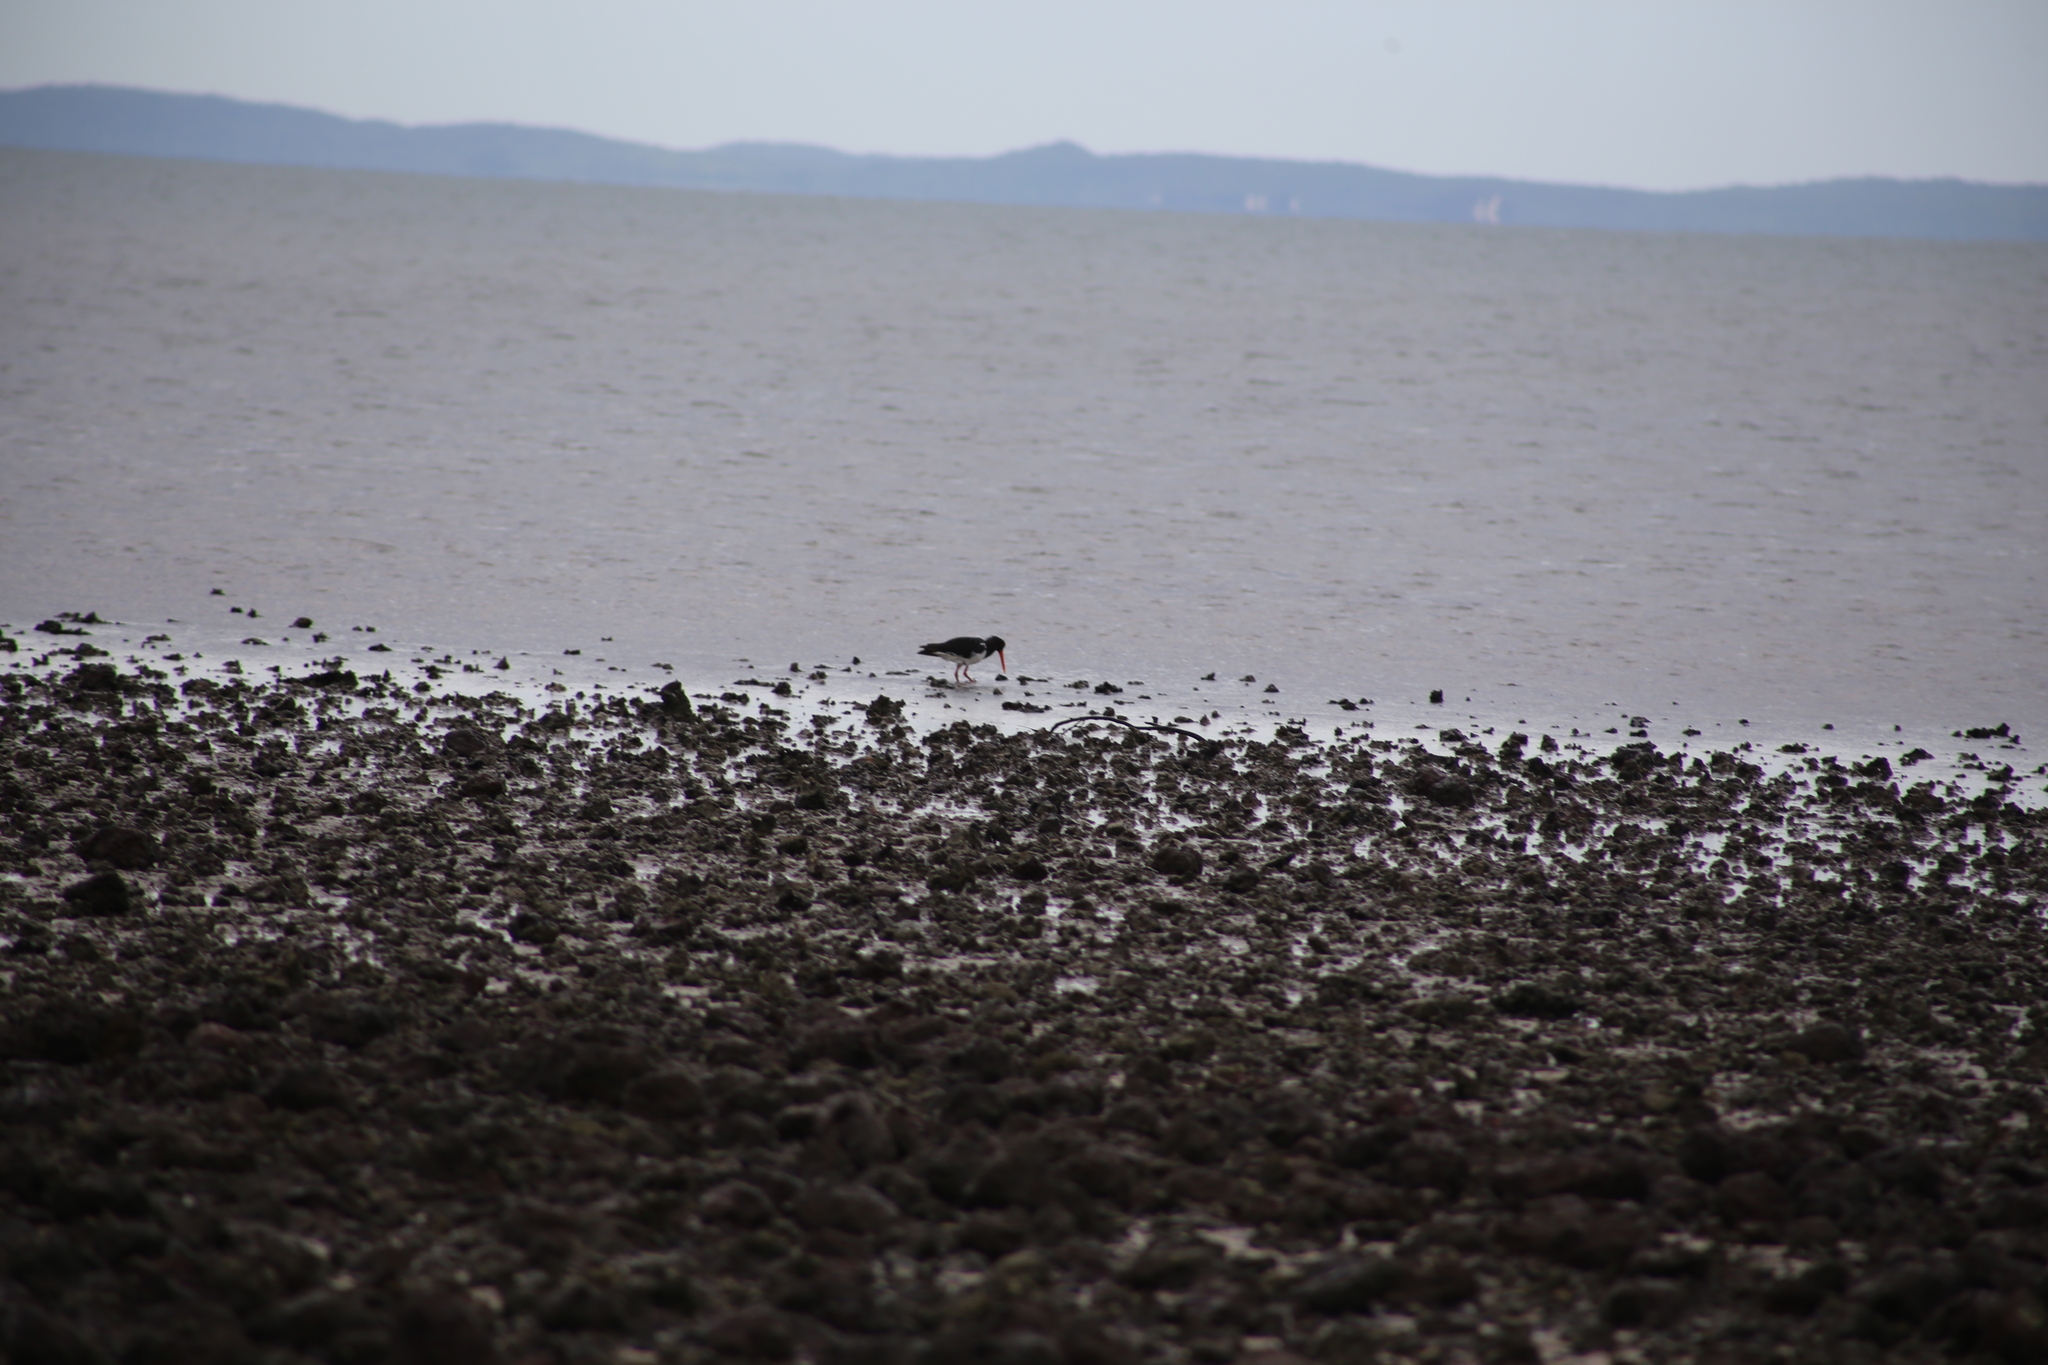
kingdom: Animalia
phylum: Chordata
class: Aves
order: Charadriiformes
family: Haematopodidae
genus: Haematopus
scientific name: Haematopus longirostris
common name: Pied oystercatcher
